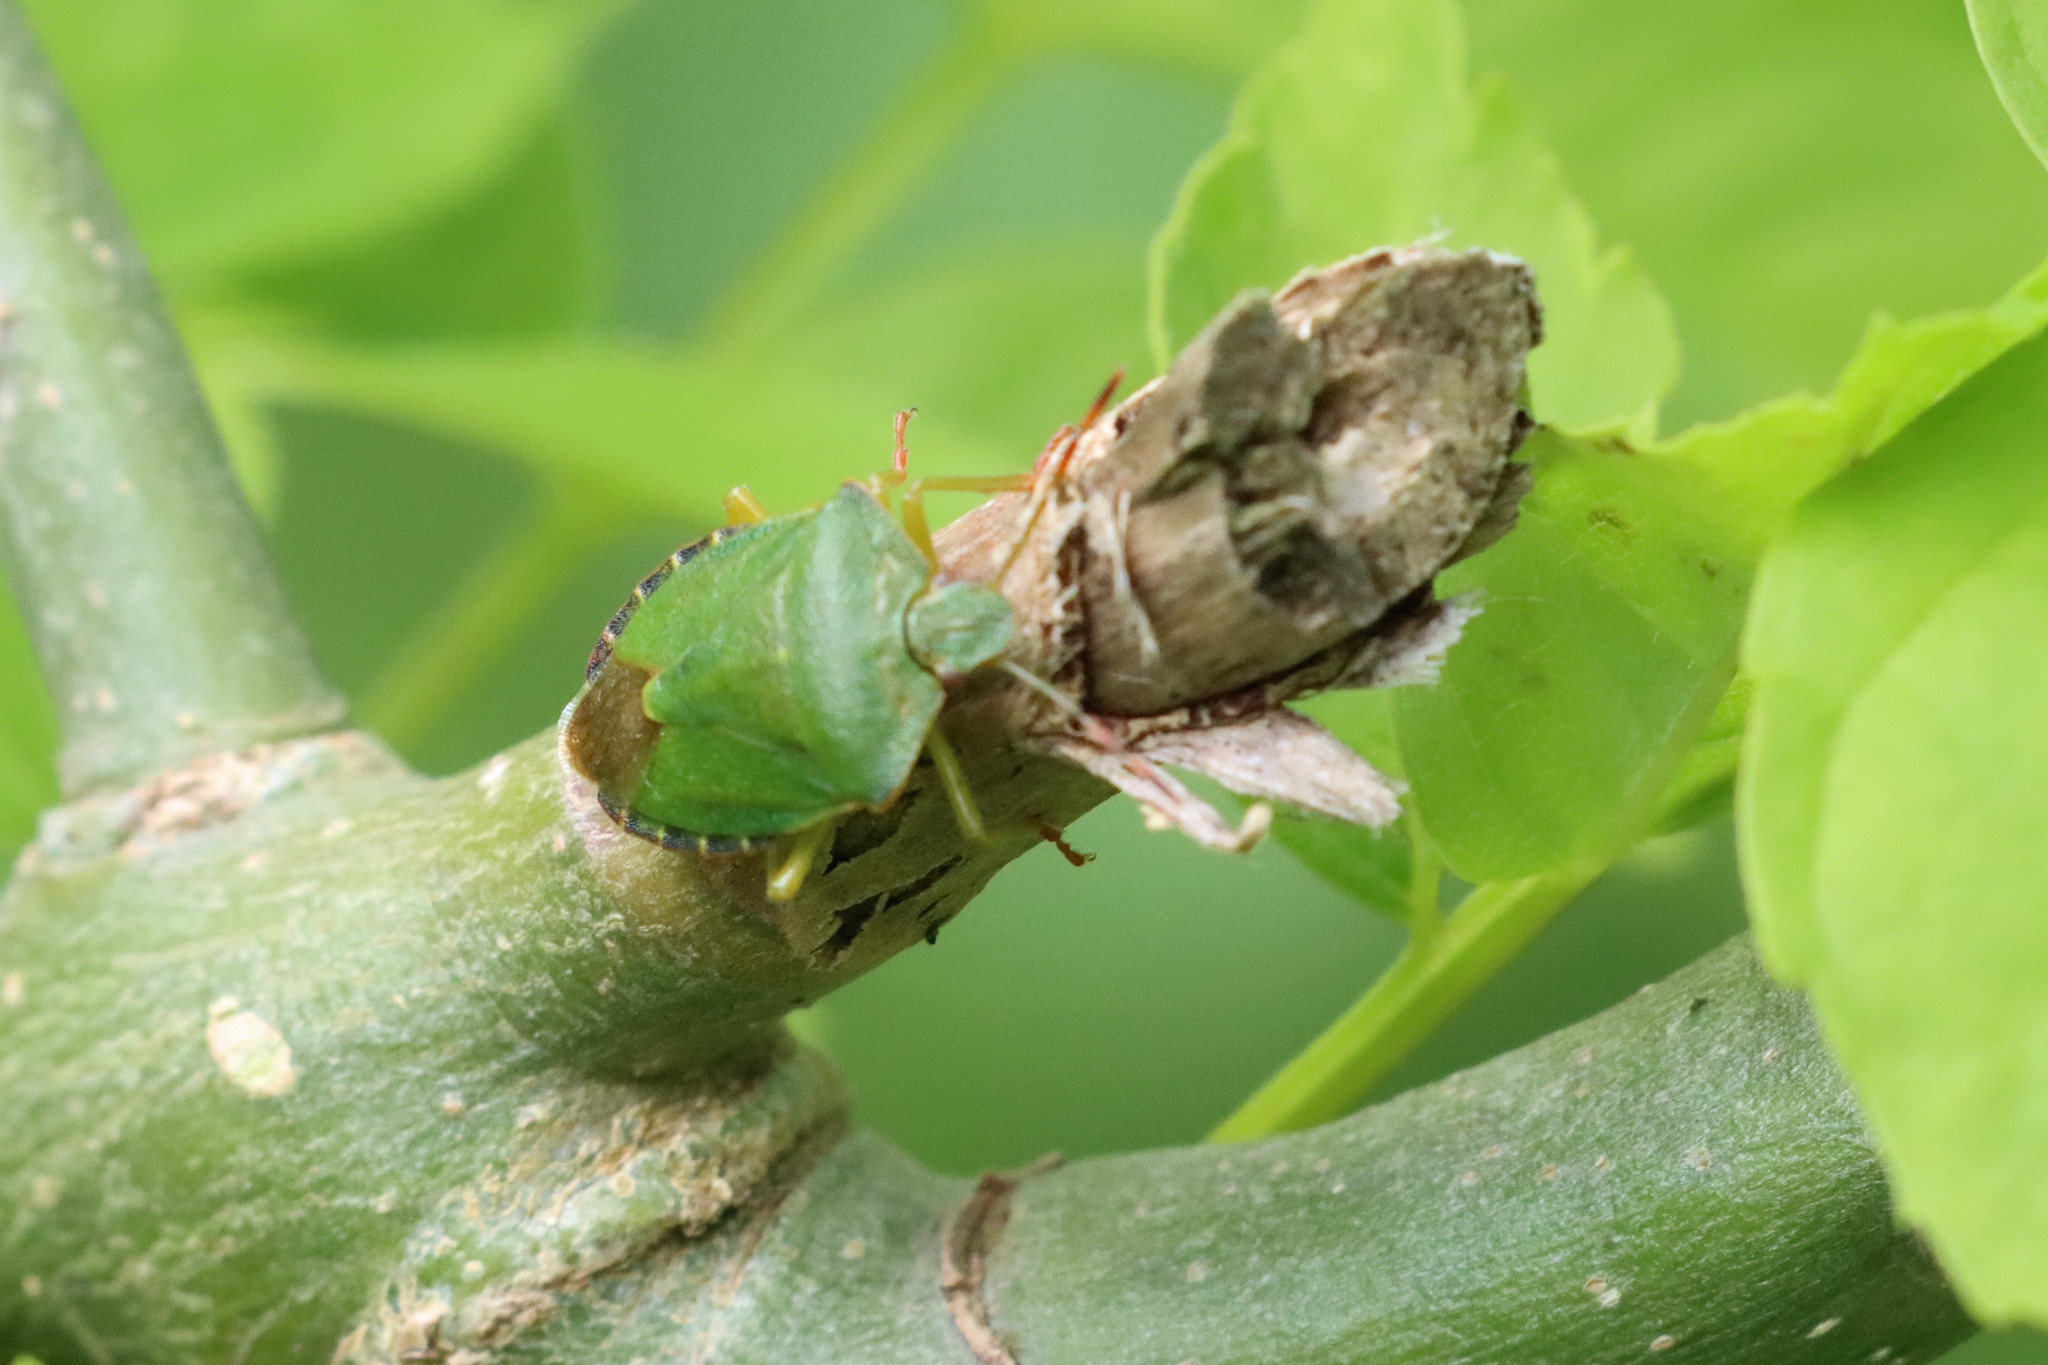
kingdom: Animalia
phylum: Arthropoda
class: Insecta
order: Hemiptera
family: Pentatomidae
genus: Palomena
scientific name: Palomena prasina
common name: Green shieldbug
